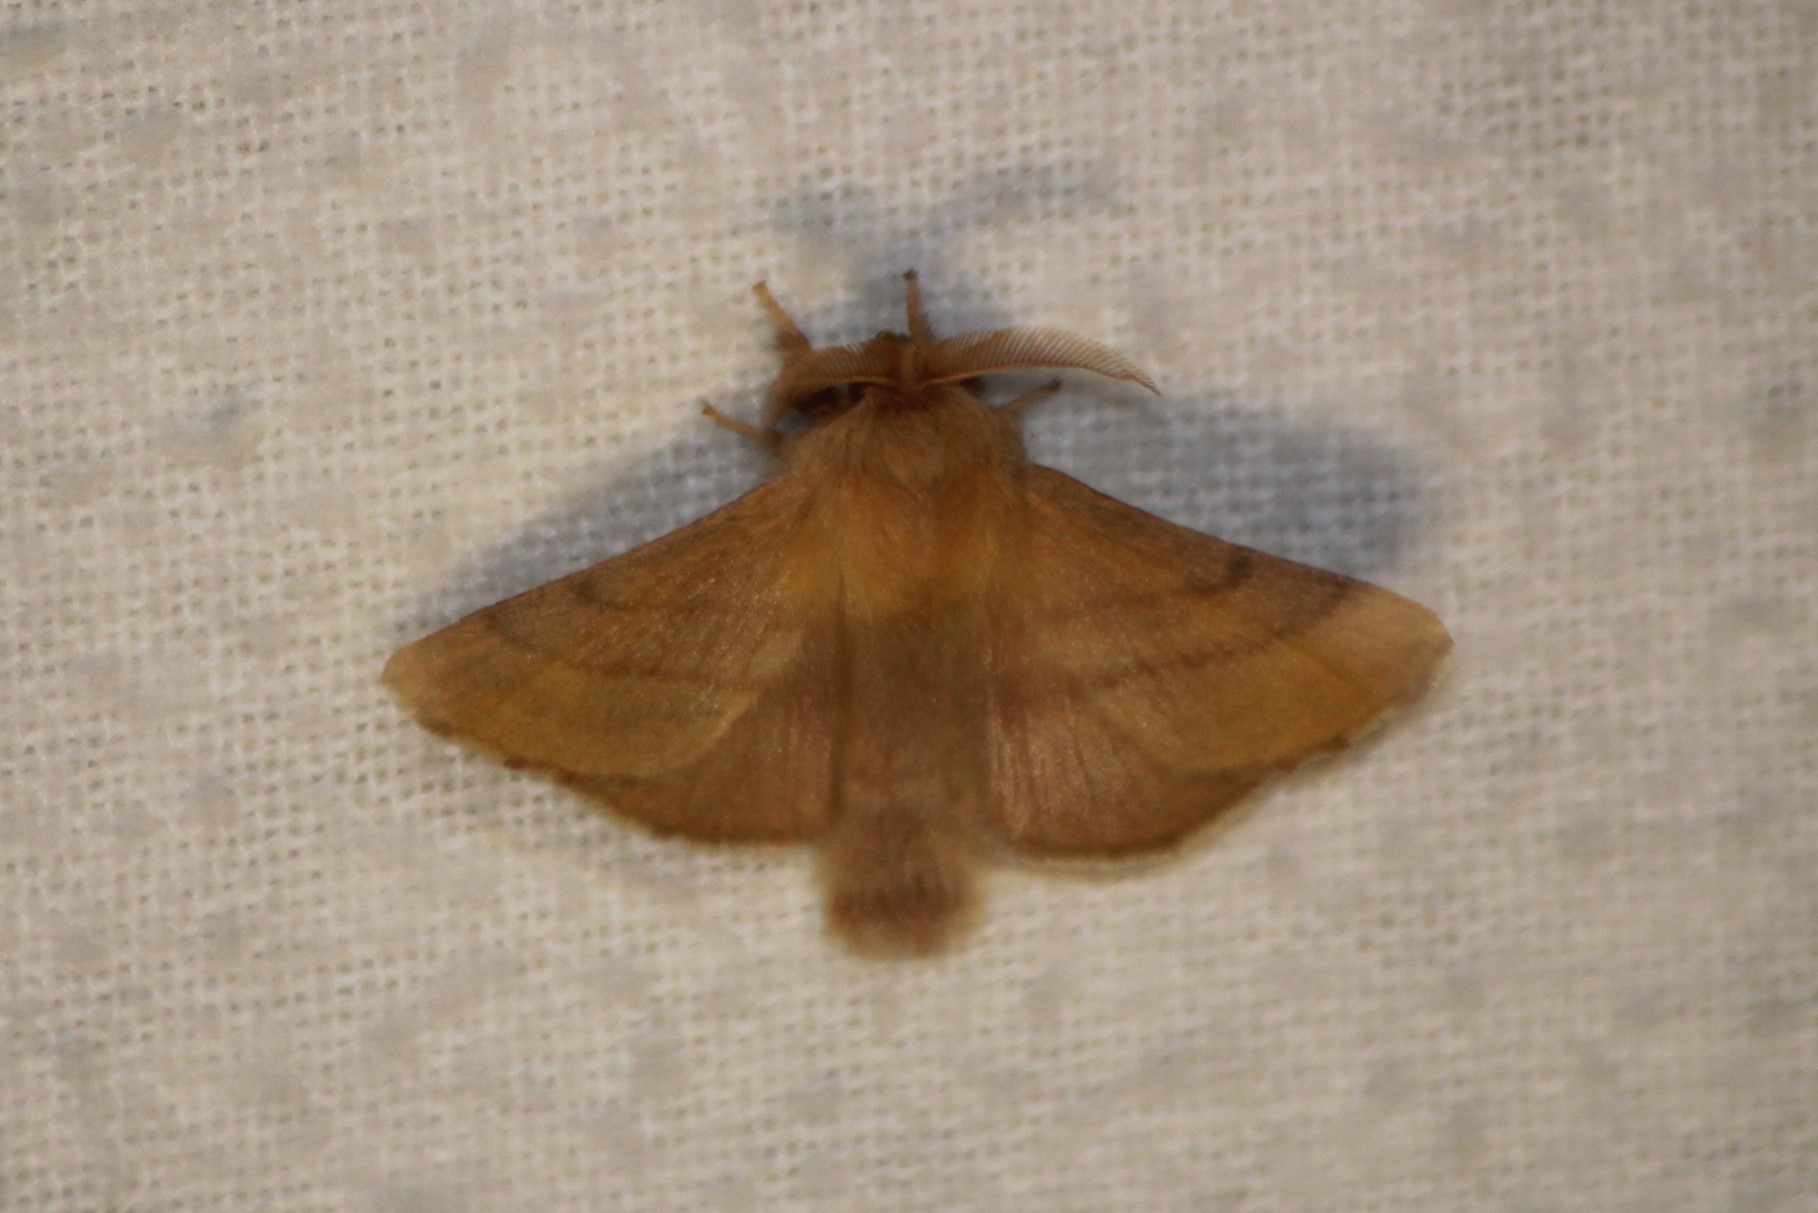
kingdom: Animalia
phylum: Arthropoda
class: Insecta
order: Lepidoptera
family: Lasiocampidae
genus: Malacosoma
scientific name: Malacosoma disstria
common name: Forest tent caterpillar
